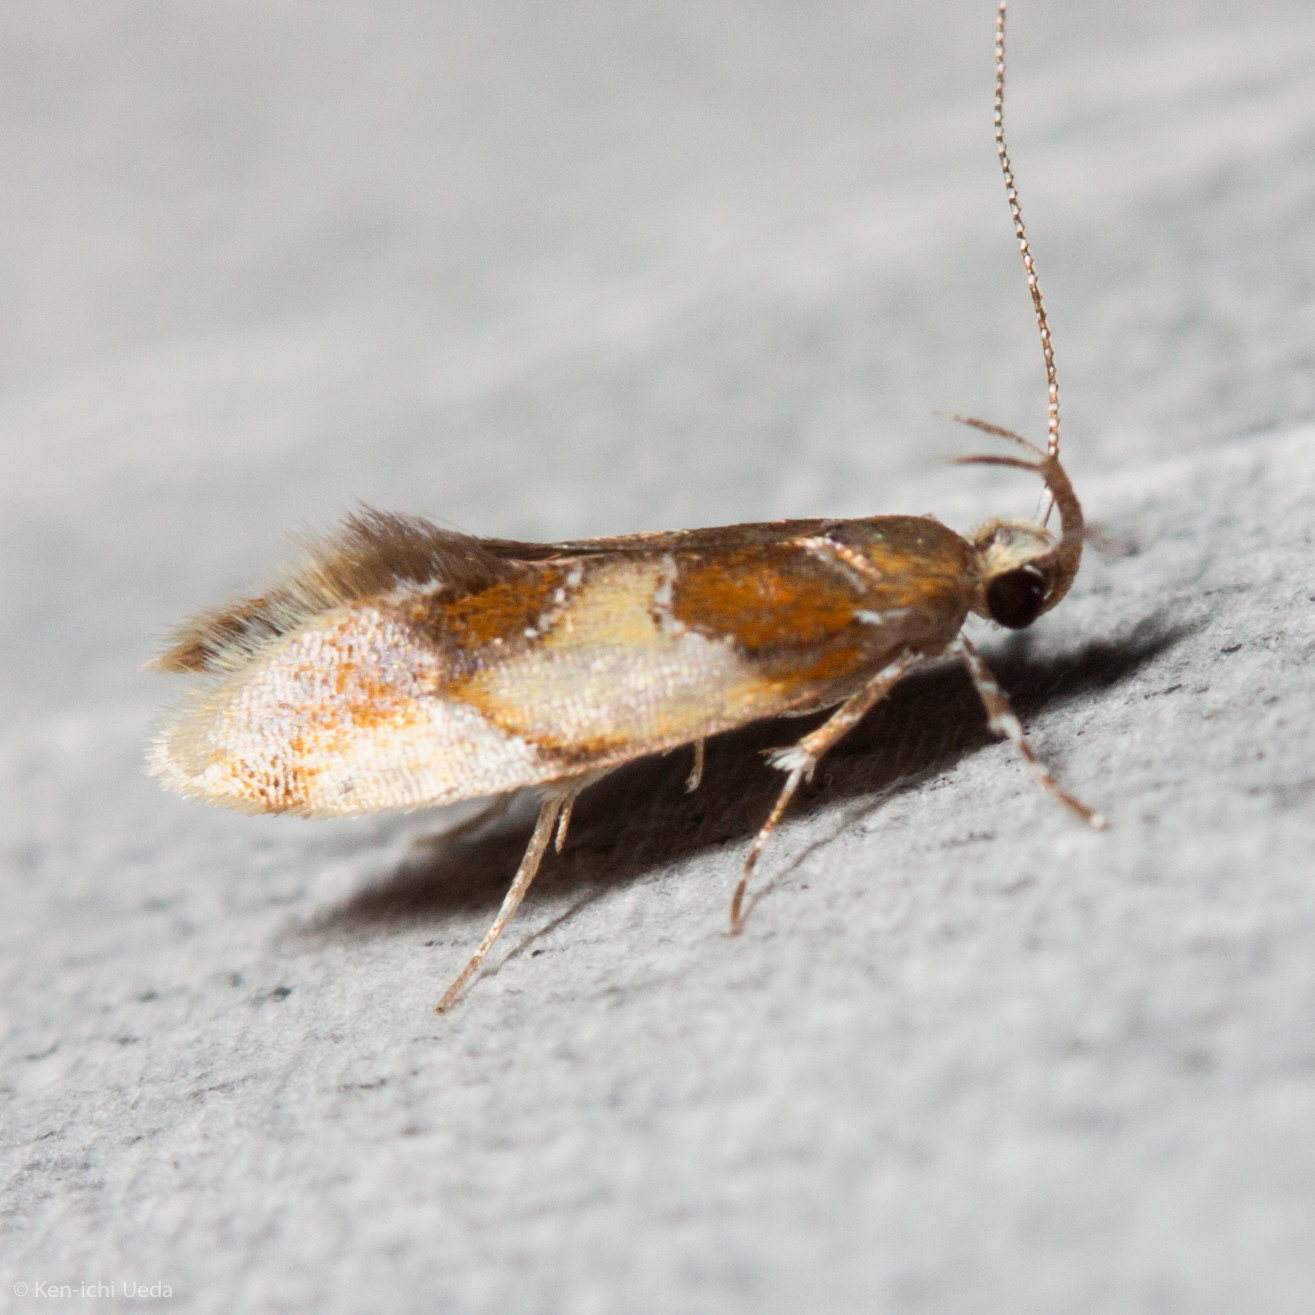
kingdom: Animalia
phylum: Arthropoda
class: Insecta
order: Lepidoptera
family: Oecophoridae
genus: Callima
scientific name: Callima argenticinctella
